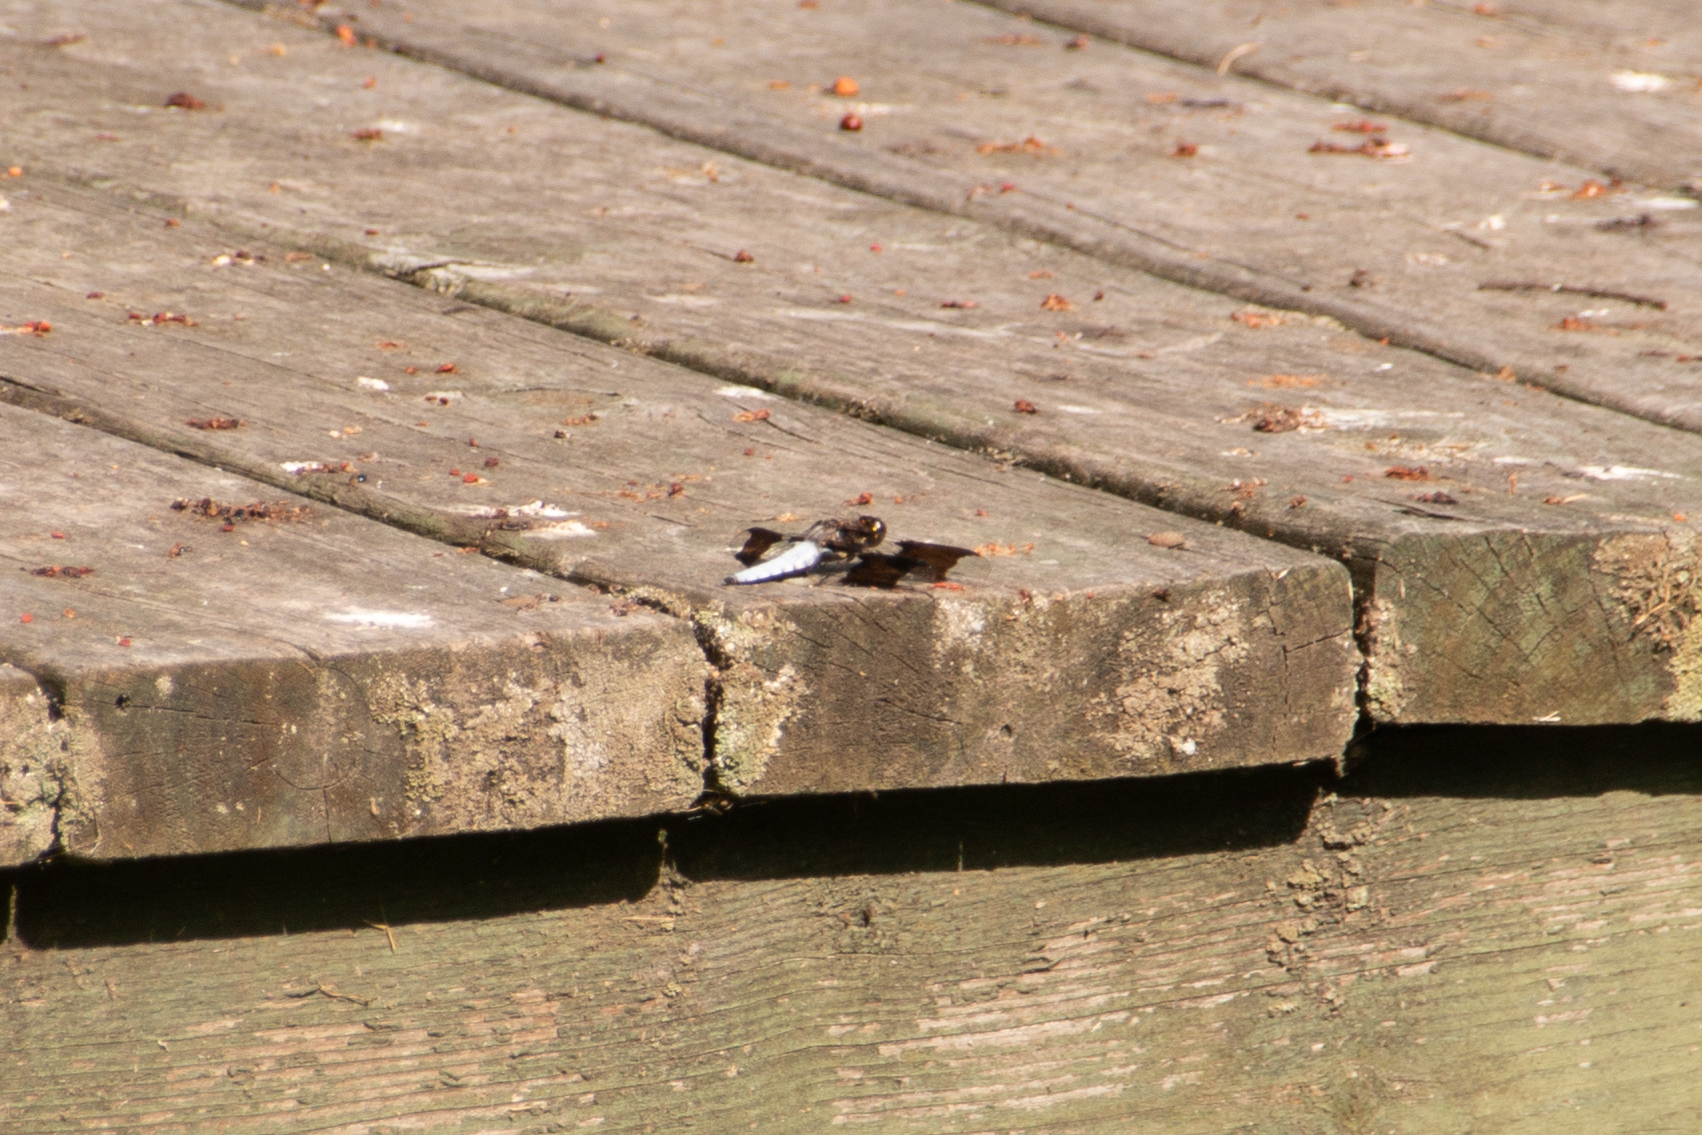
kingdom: Animalia
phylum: Arthropoda
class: Insecta
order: Odonata
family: Libellulidae
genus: Plathemis
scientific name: Plathemis lydia
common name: Common whitetail
